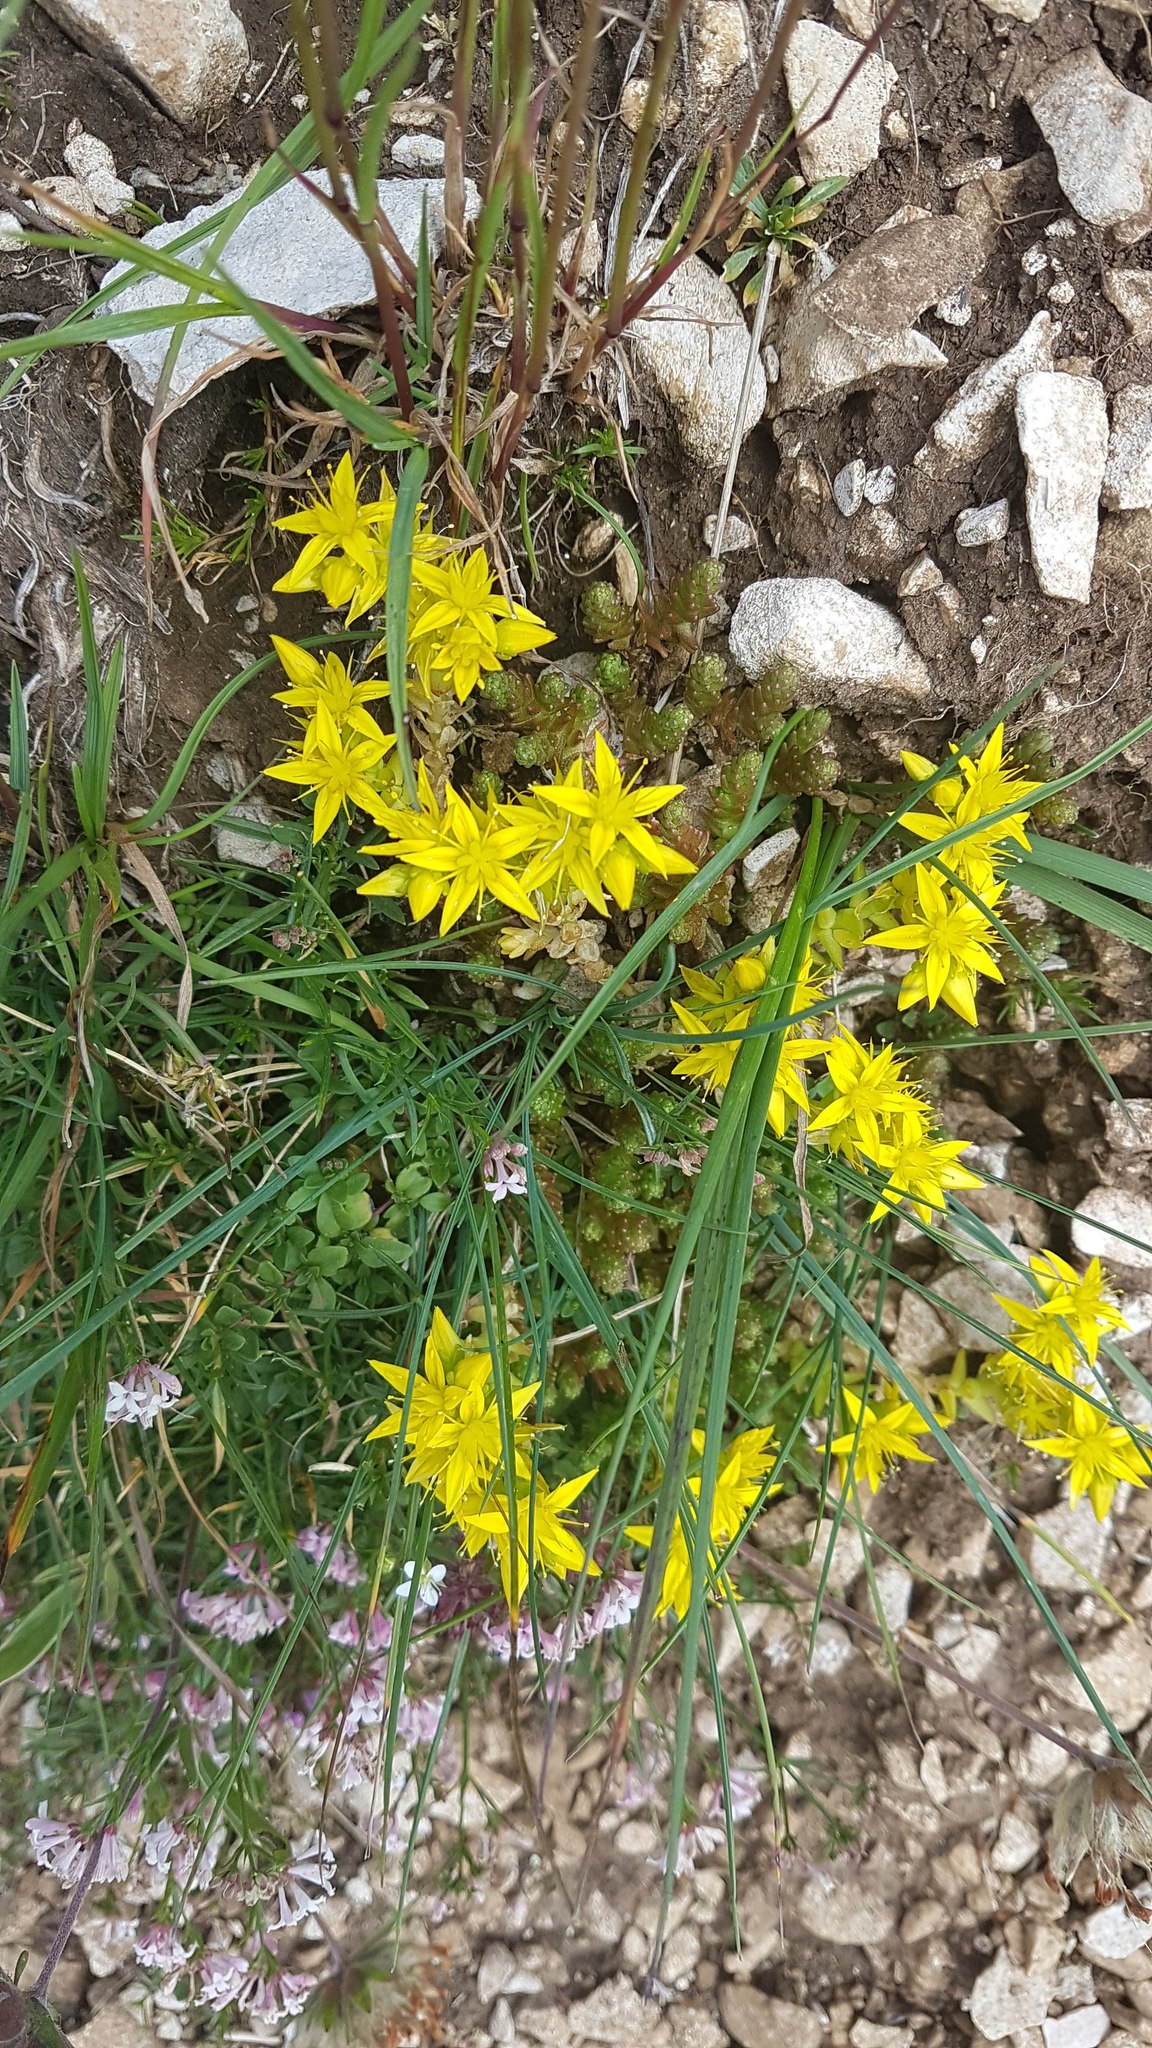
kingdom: Plantae
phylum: Tracheophyta
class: Magnoliopsida
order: Saxifragales
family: Crassulaceae
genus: Sedum
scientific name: Sedum acre
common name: Biting stonecrop
